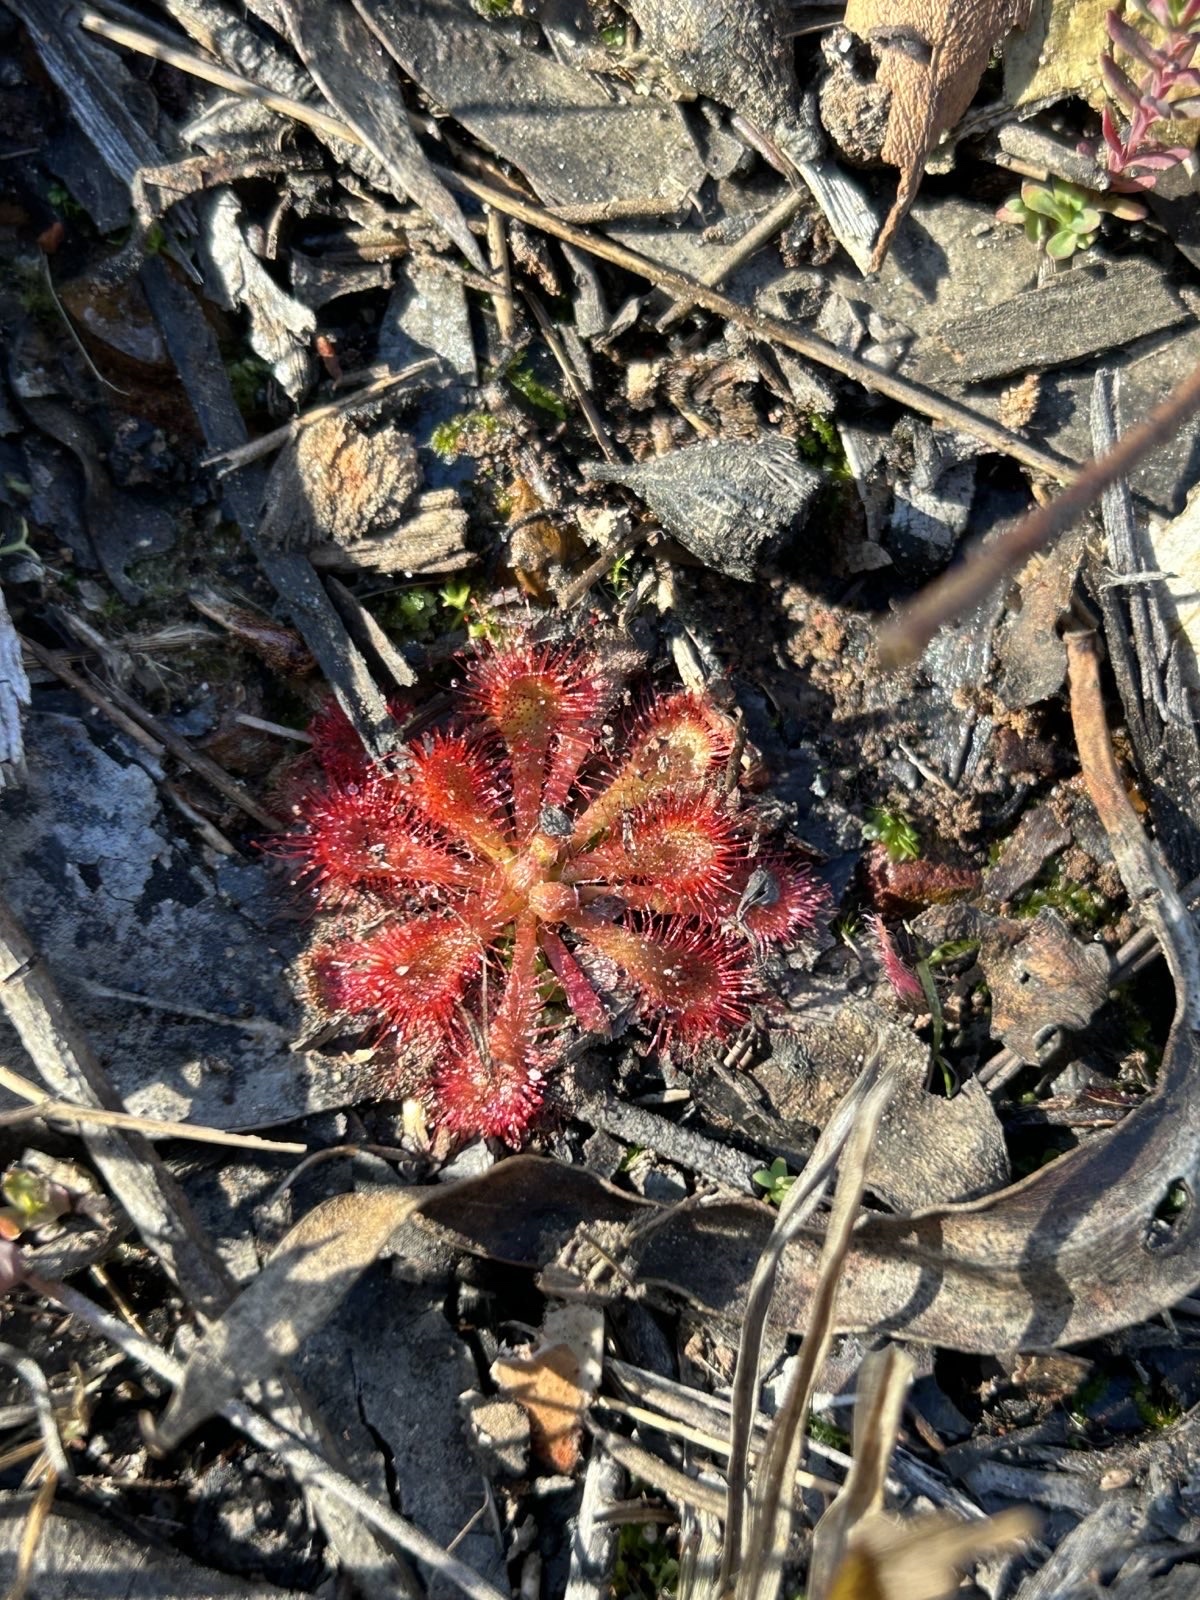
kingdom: Plantae
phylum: Tracheophyta
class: Magnoliopsida
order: Caryophyllales
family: Droseraceae
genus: Drosera
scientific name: Drosera spatulata
